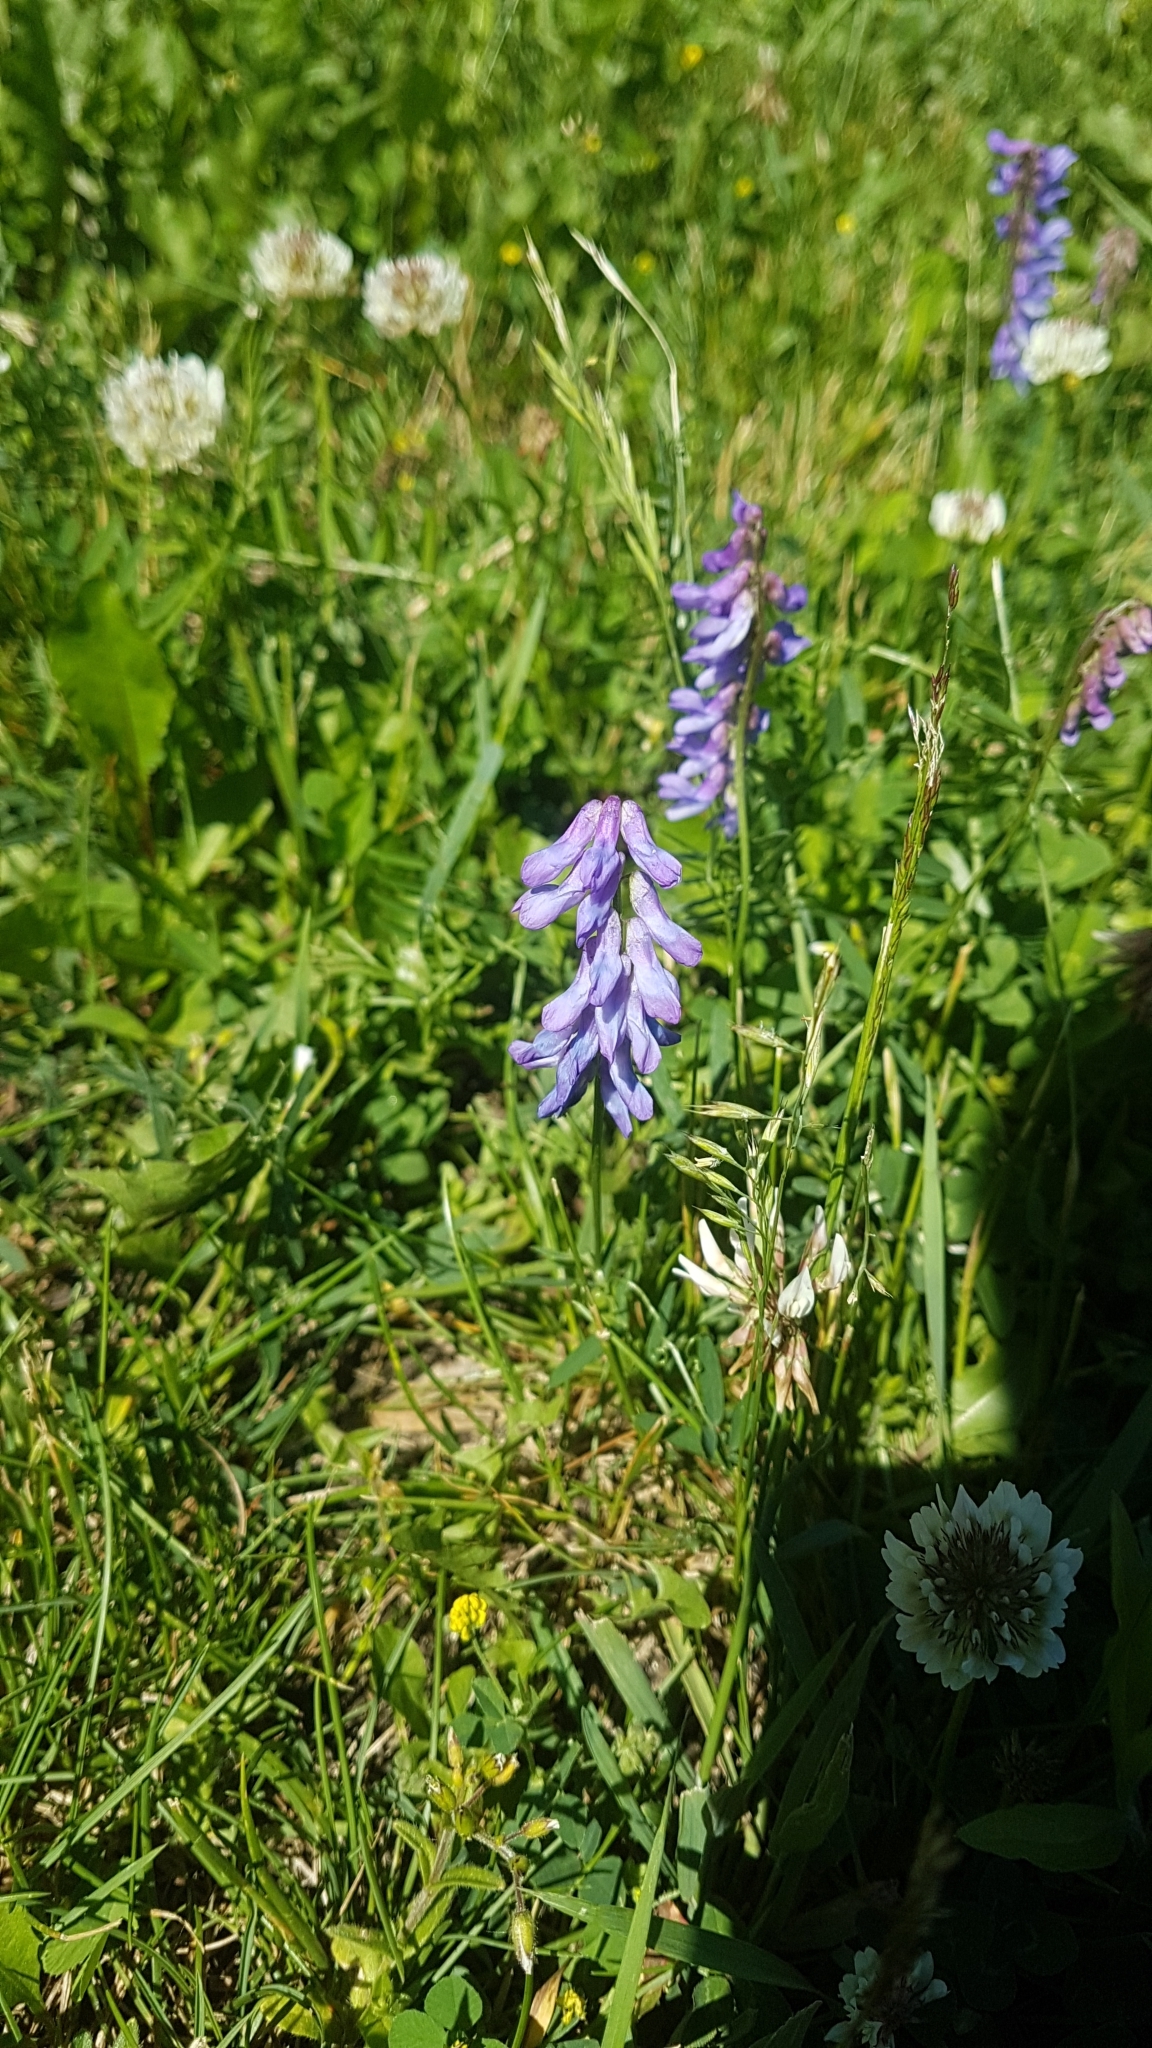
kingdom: Plantae
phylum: Tracheophyta
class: Magnoliopsida
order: Fabales
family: Fabaceae
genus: Vicia
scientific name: Vicia cracca
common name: Bird vetch
